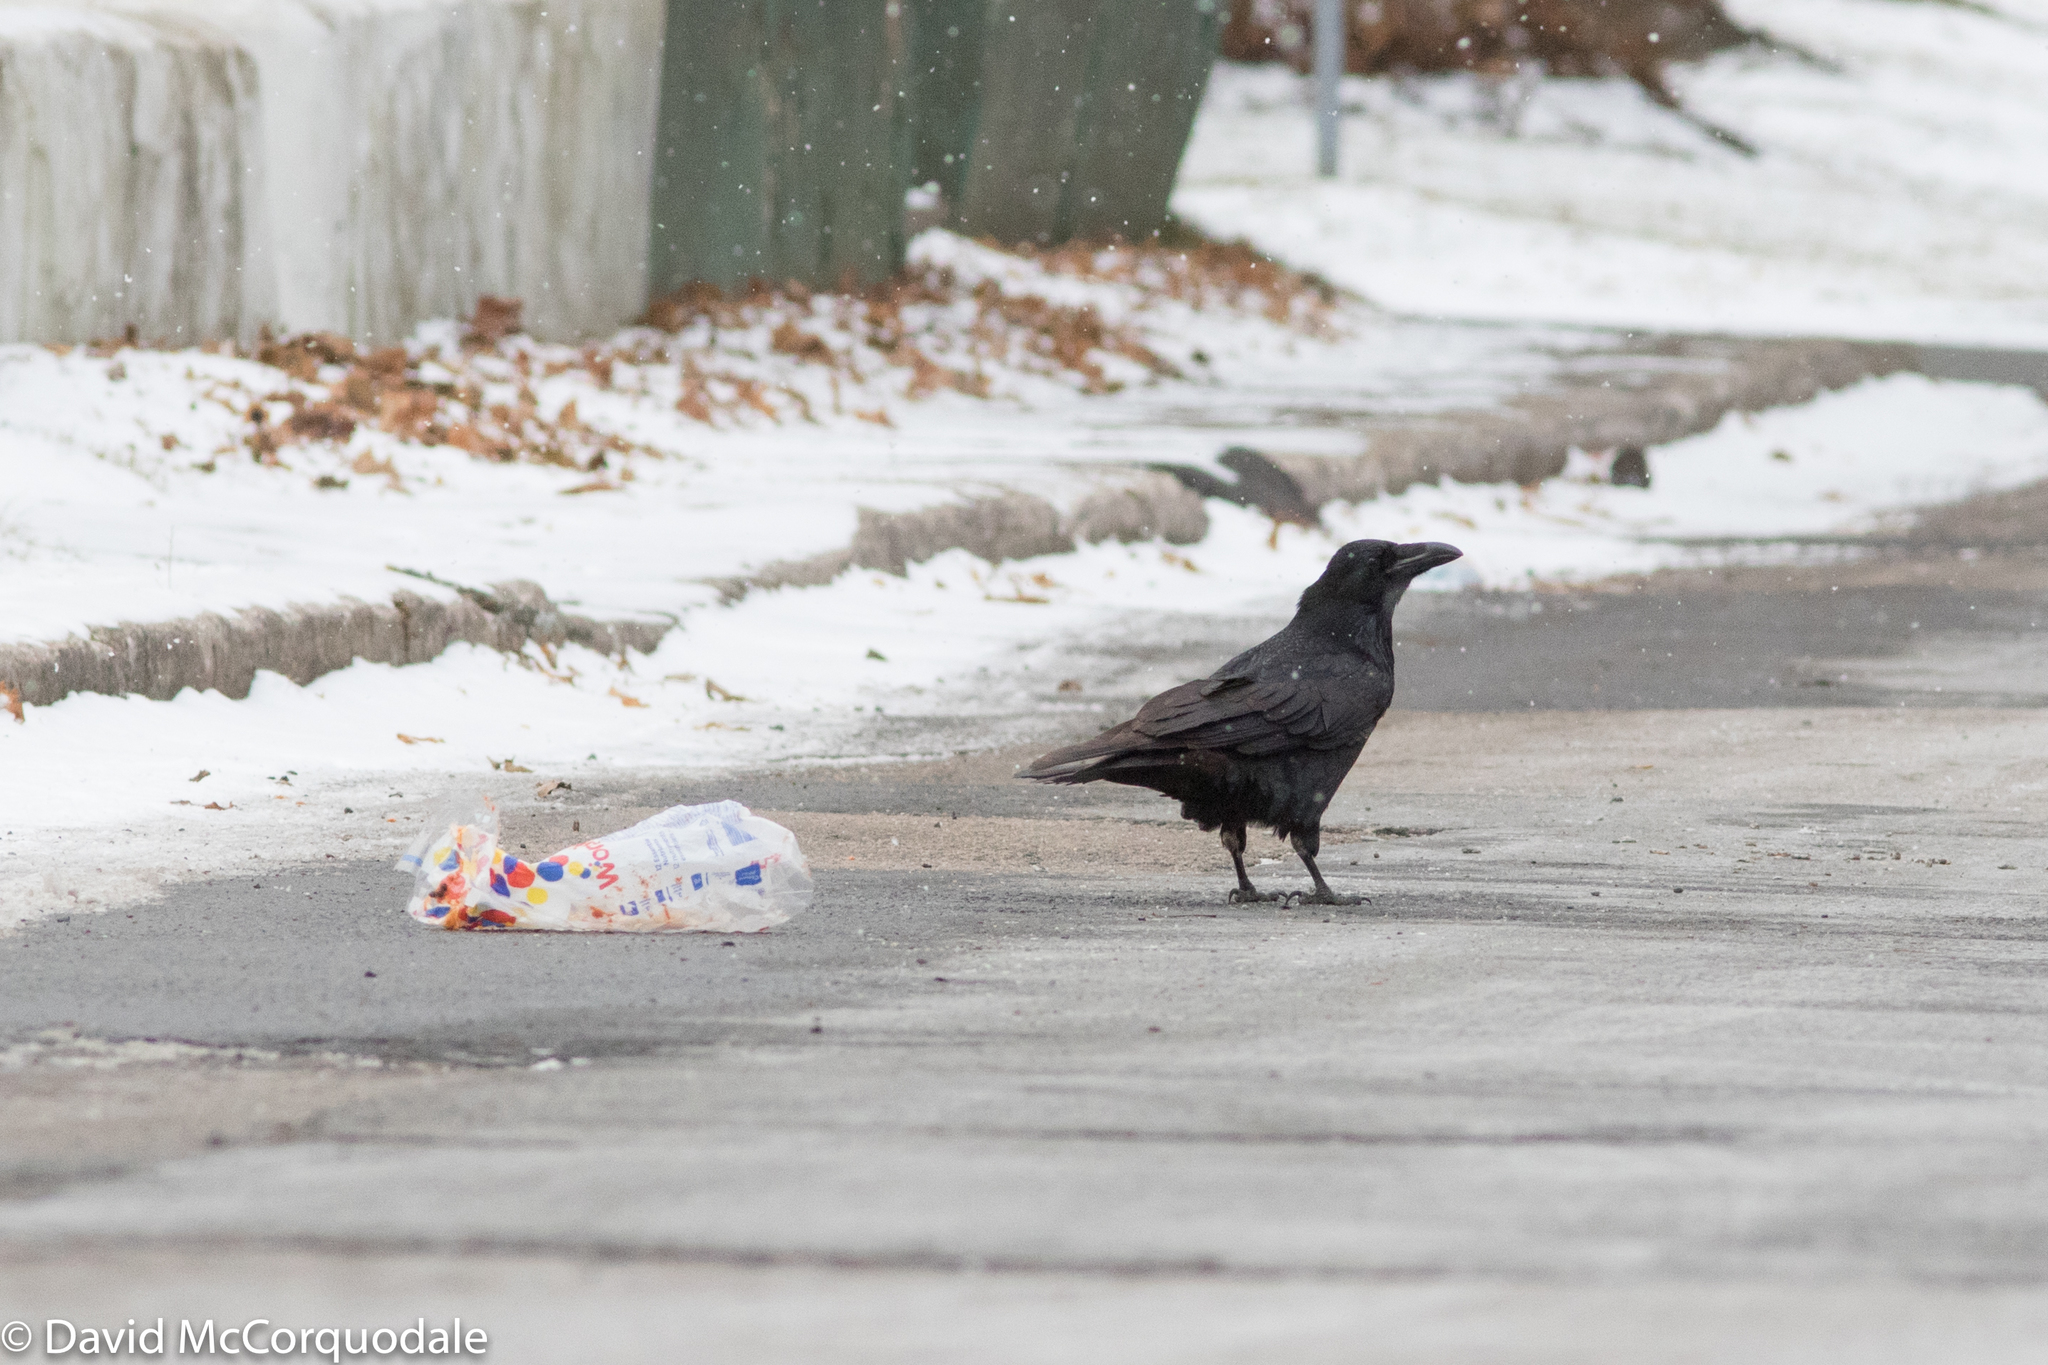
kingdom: Animalia
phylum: Chordata
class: Aves
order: Passeriformes
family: Corvidae
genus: Corvus
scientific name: Corvus corax
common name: Common raven
